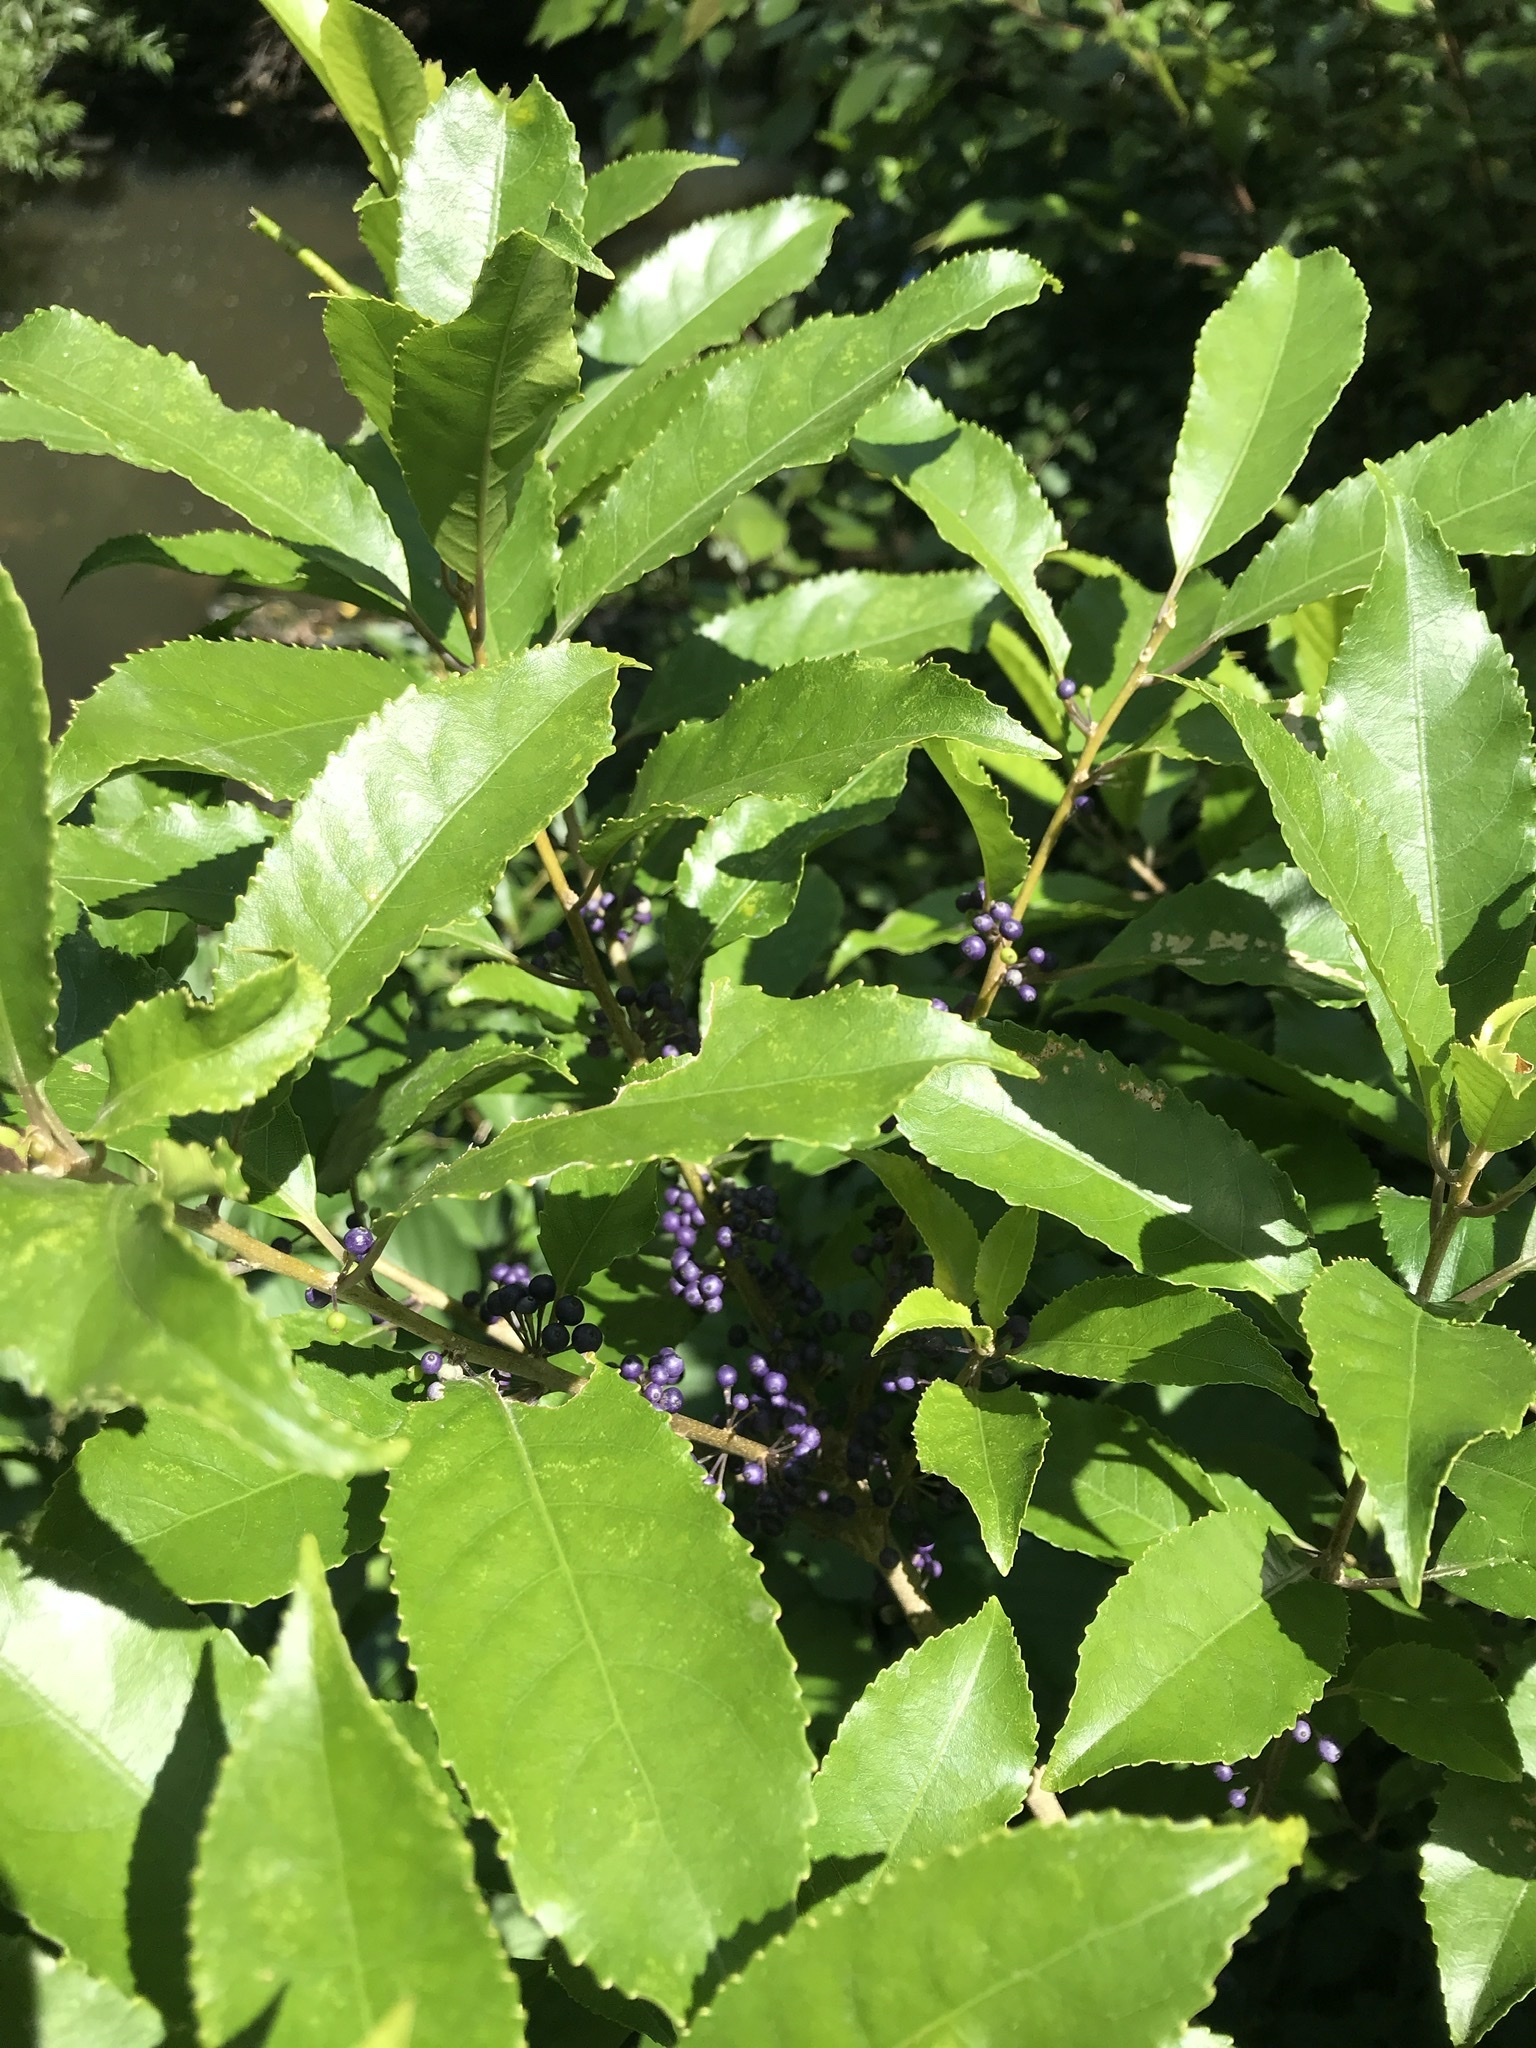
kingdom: Plantae
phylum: Tracheophyta
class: Magnoliopsida
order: Malpighiales
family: Violaceae
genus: Melicytus
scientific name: Melicytus ramiflorus
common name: Mahoe
